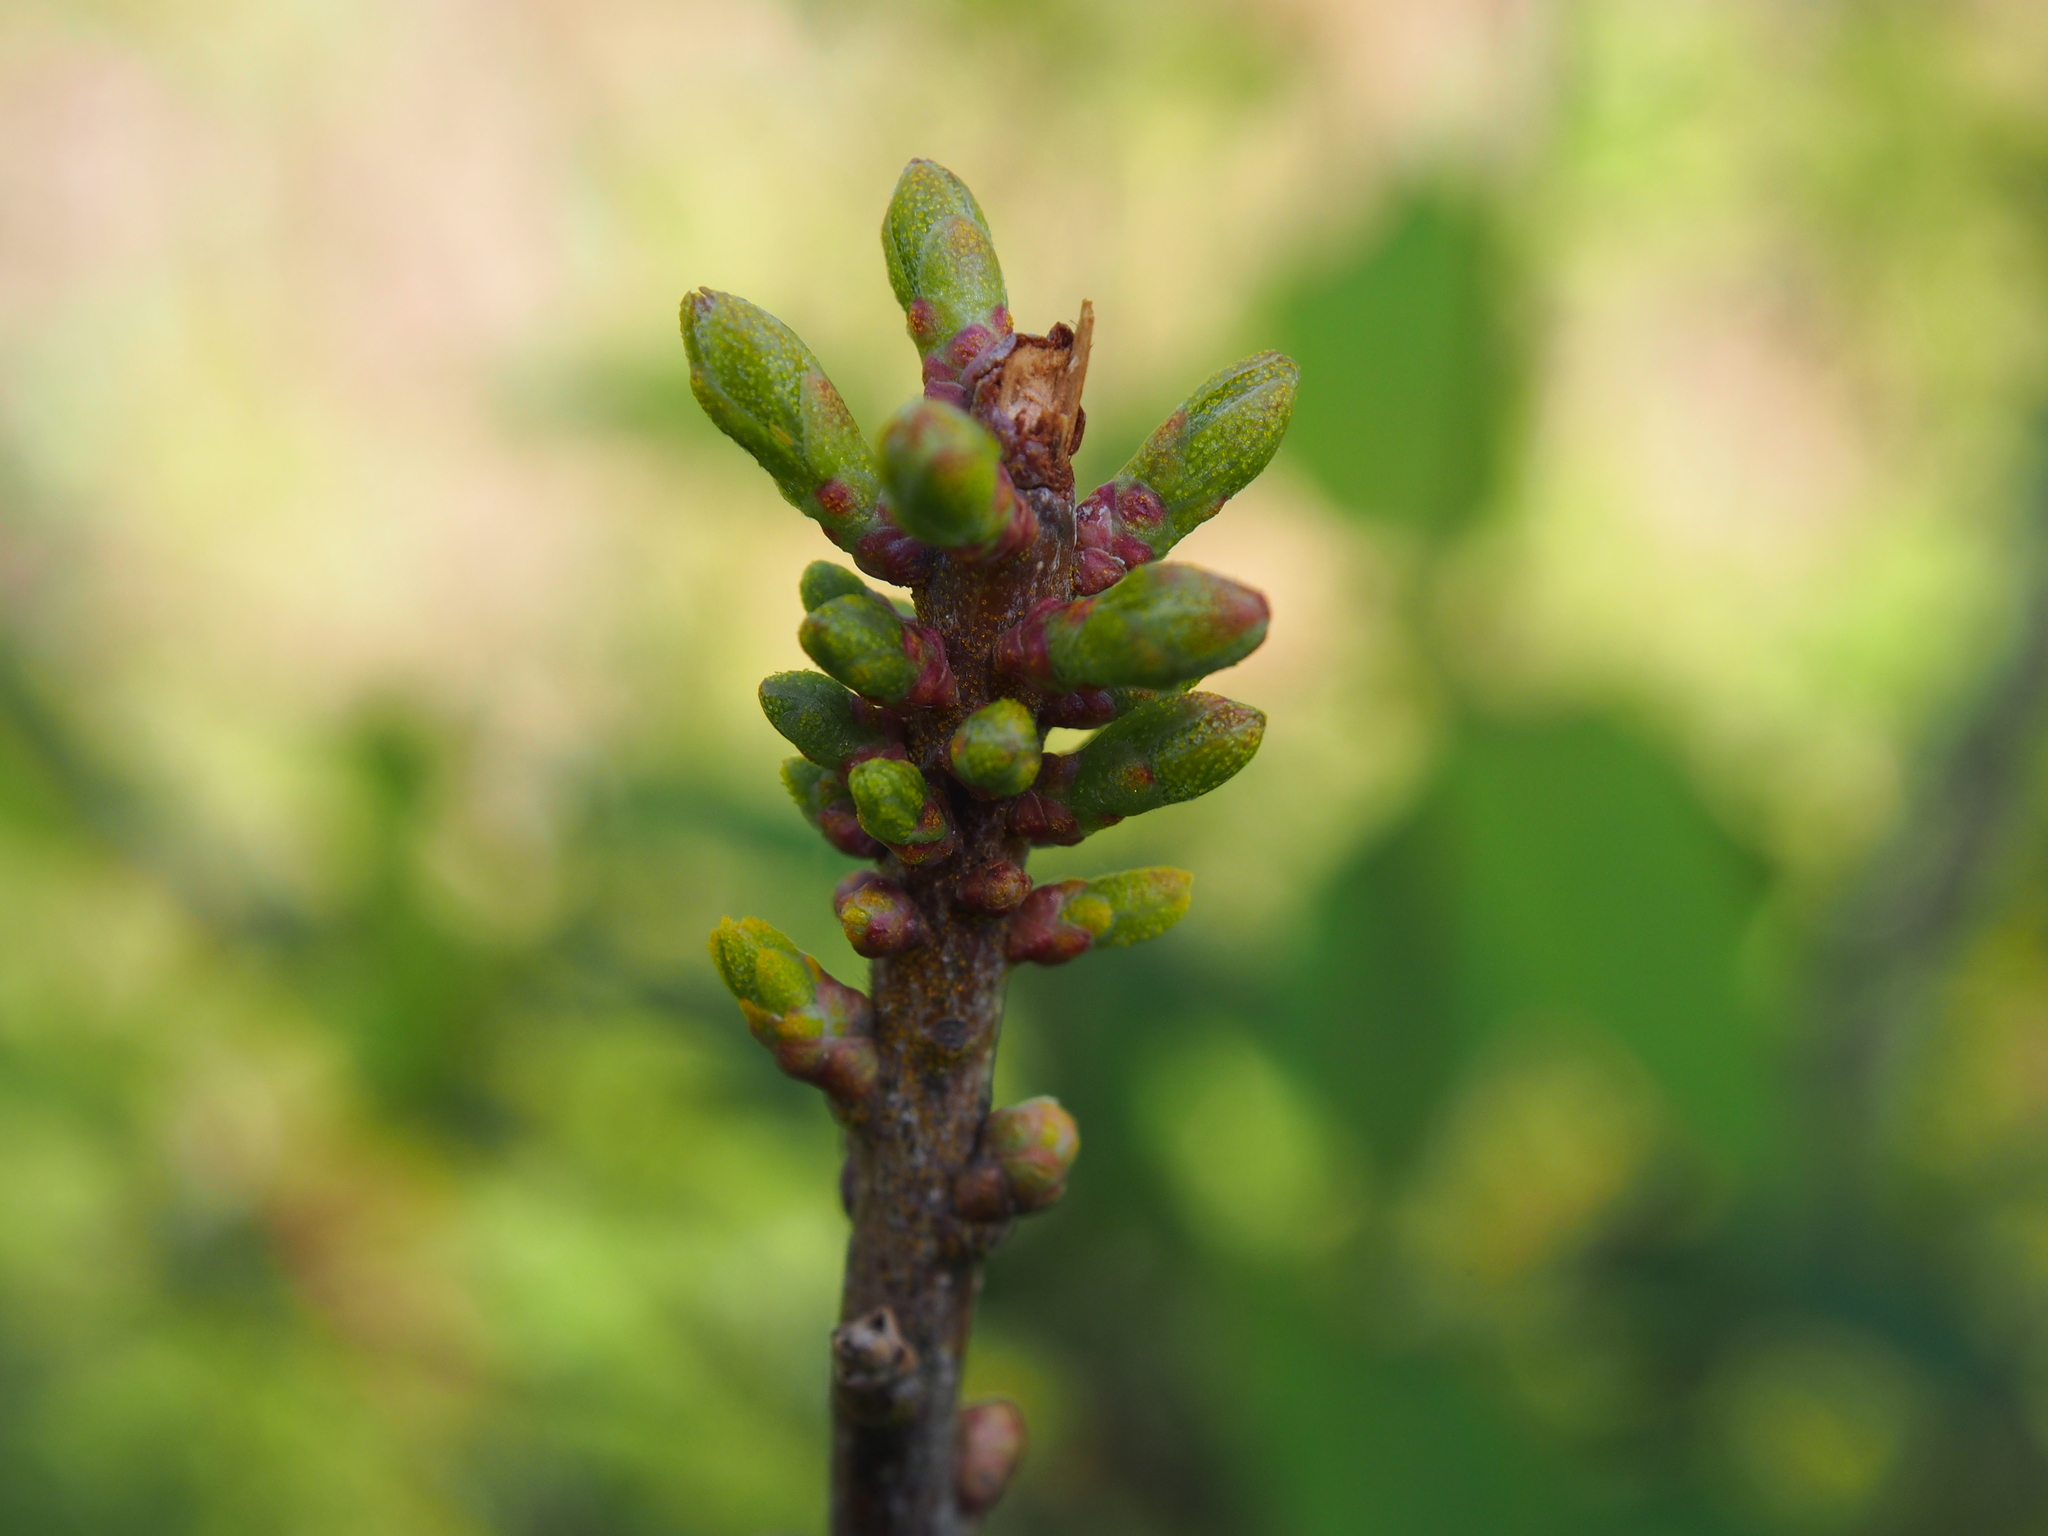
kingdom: Plantae
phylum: Tracheophyta
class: Magnoliopsida
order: Fagales
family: Myricaceae
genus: Morella
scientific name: Morella pensylvanica
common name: Northern bayberry
